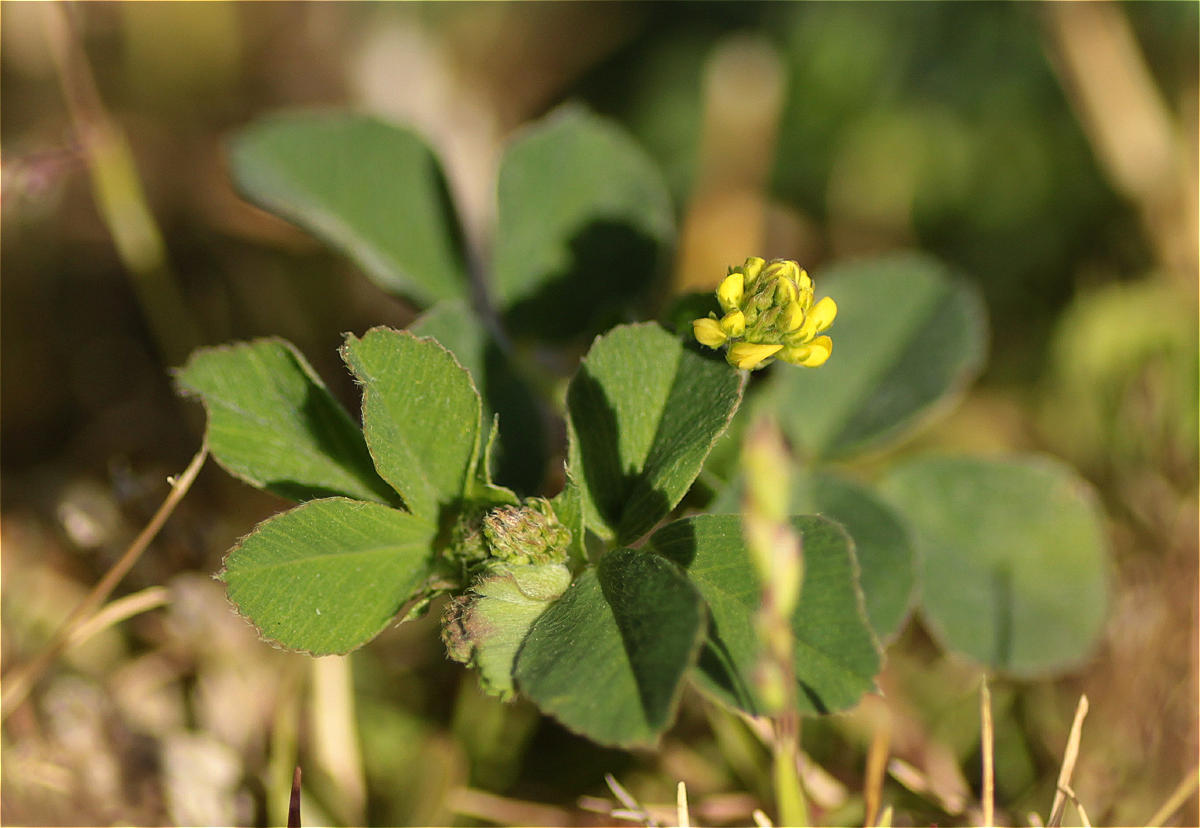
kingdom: Plantae
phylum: Tracheophyta
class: Magnoliopsida
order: Fabales
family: Fabaceae
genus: Medicago
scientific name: Medicago lupulina
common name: Black medick
